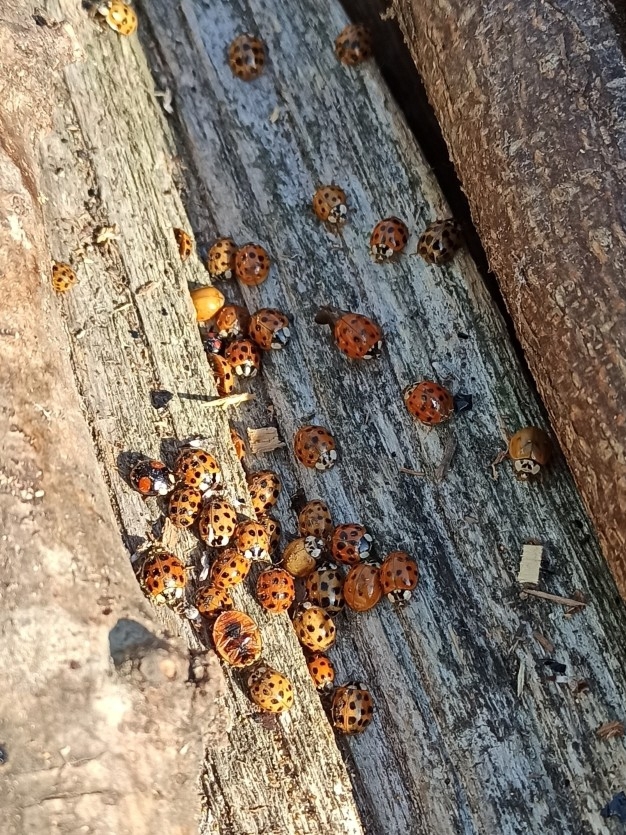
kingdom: Animalia
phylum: Arthropoda
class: Insecta
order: Coleoptera
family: Coccinellidae
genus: Harmonia
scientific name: Harmonia axyridis
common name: Harlequin ladybird
